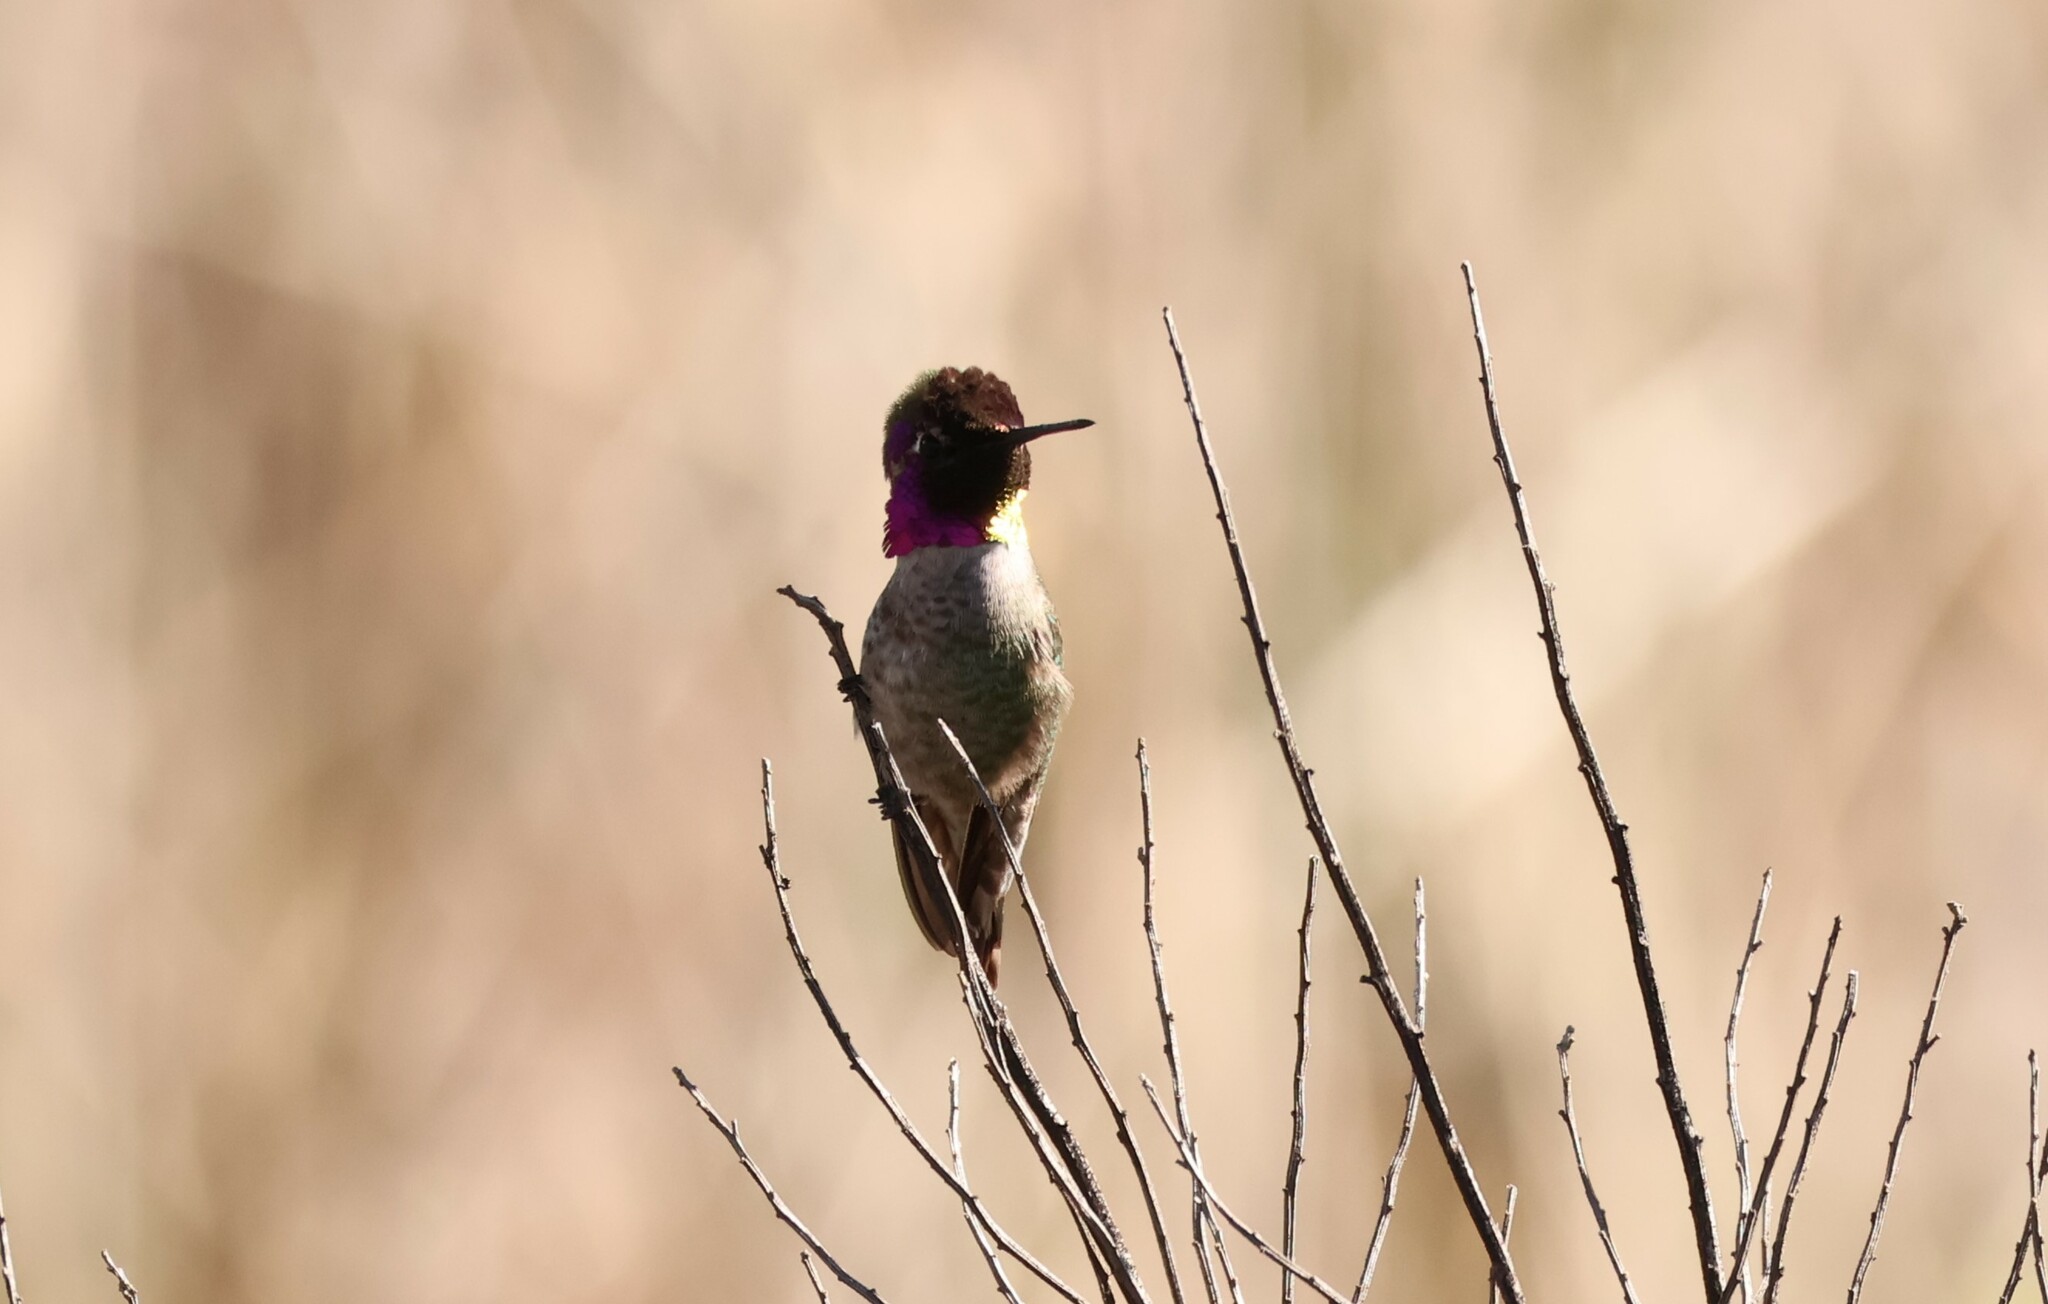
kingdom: Animalia
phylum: Chordata
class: Aves
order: Apodiformes
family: Trochilidae
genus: Calypte
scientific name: Calypte anna
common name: Anna's hummingbird
